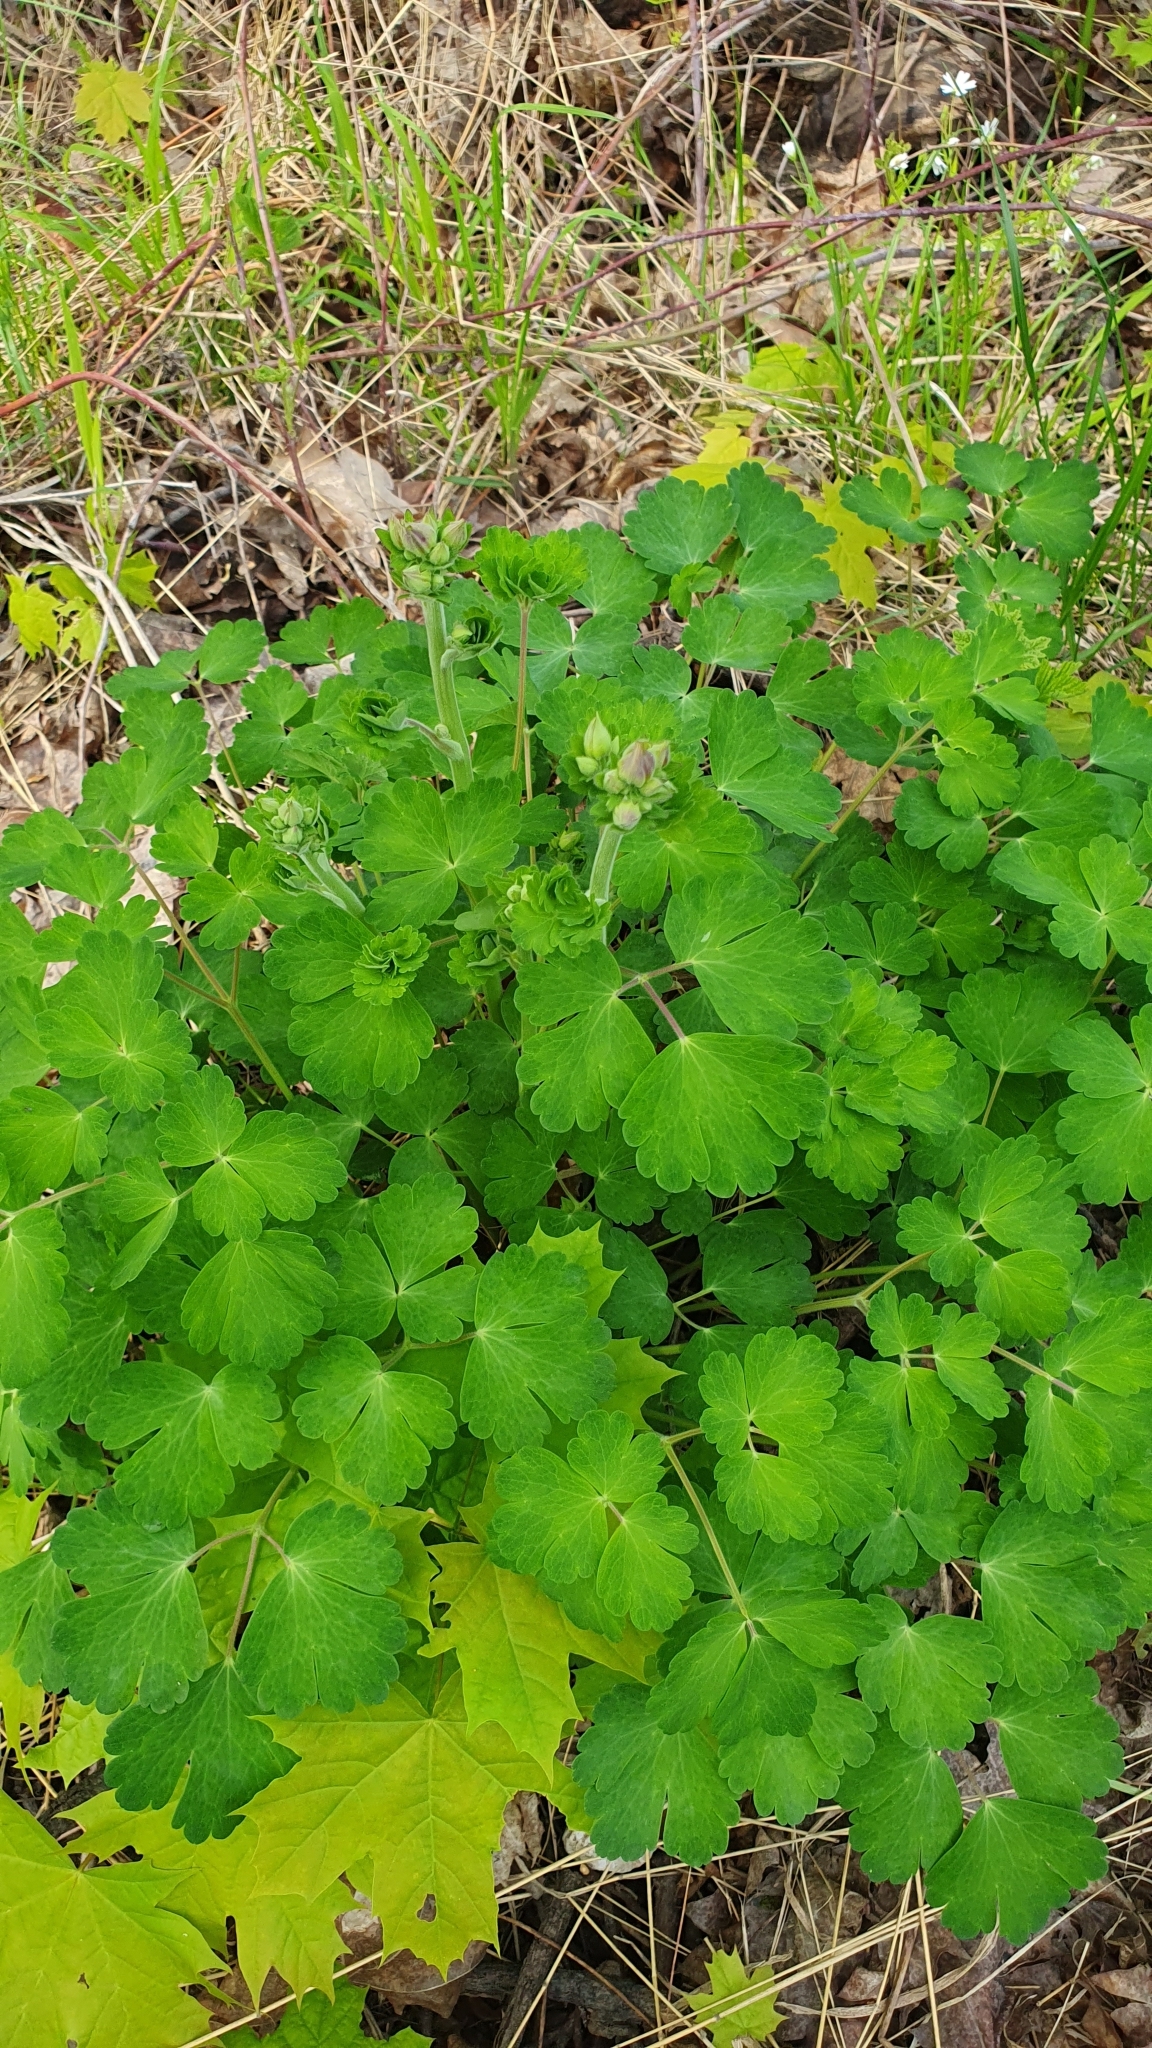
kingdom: Plantae
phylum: Tracheophyta
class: Magnoliopsida
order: Ranunculales
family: Ranunculaceae
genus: Aquilegia
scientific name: Aquilegia vulgaris
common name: Columbine
